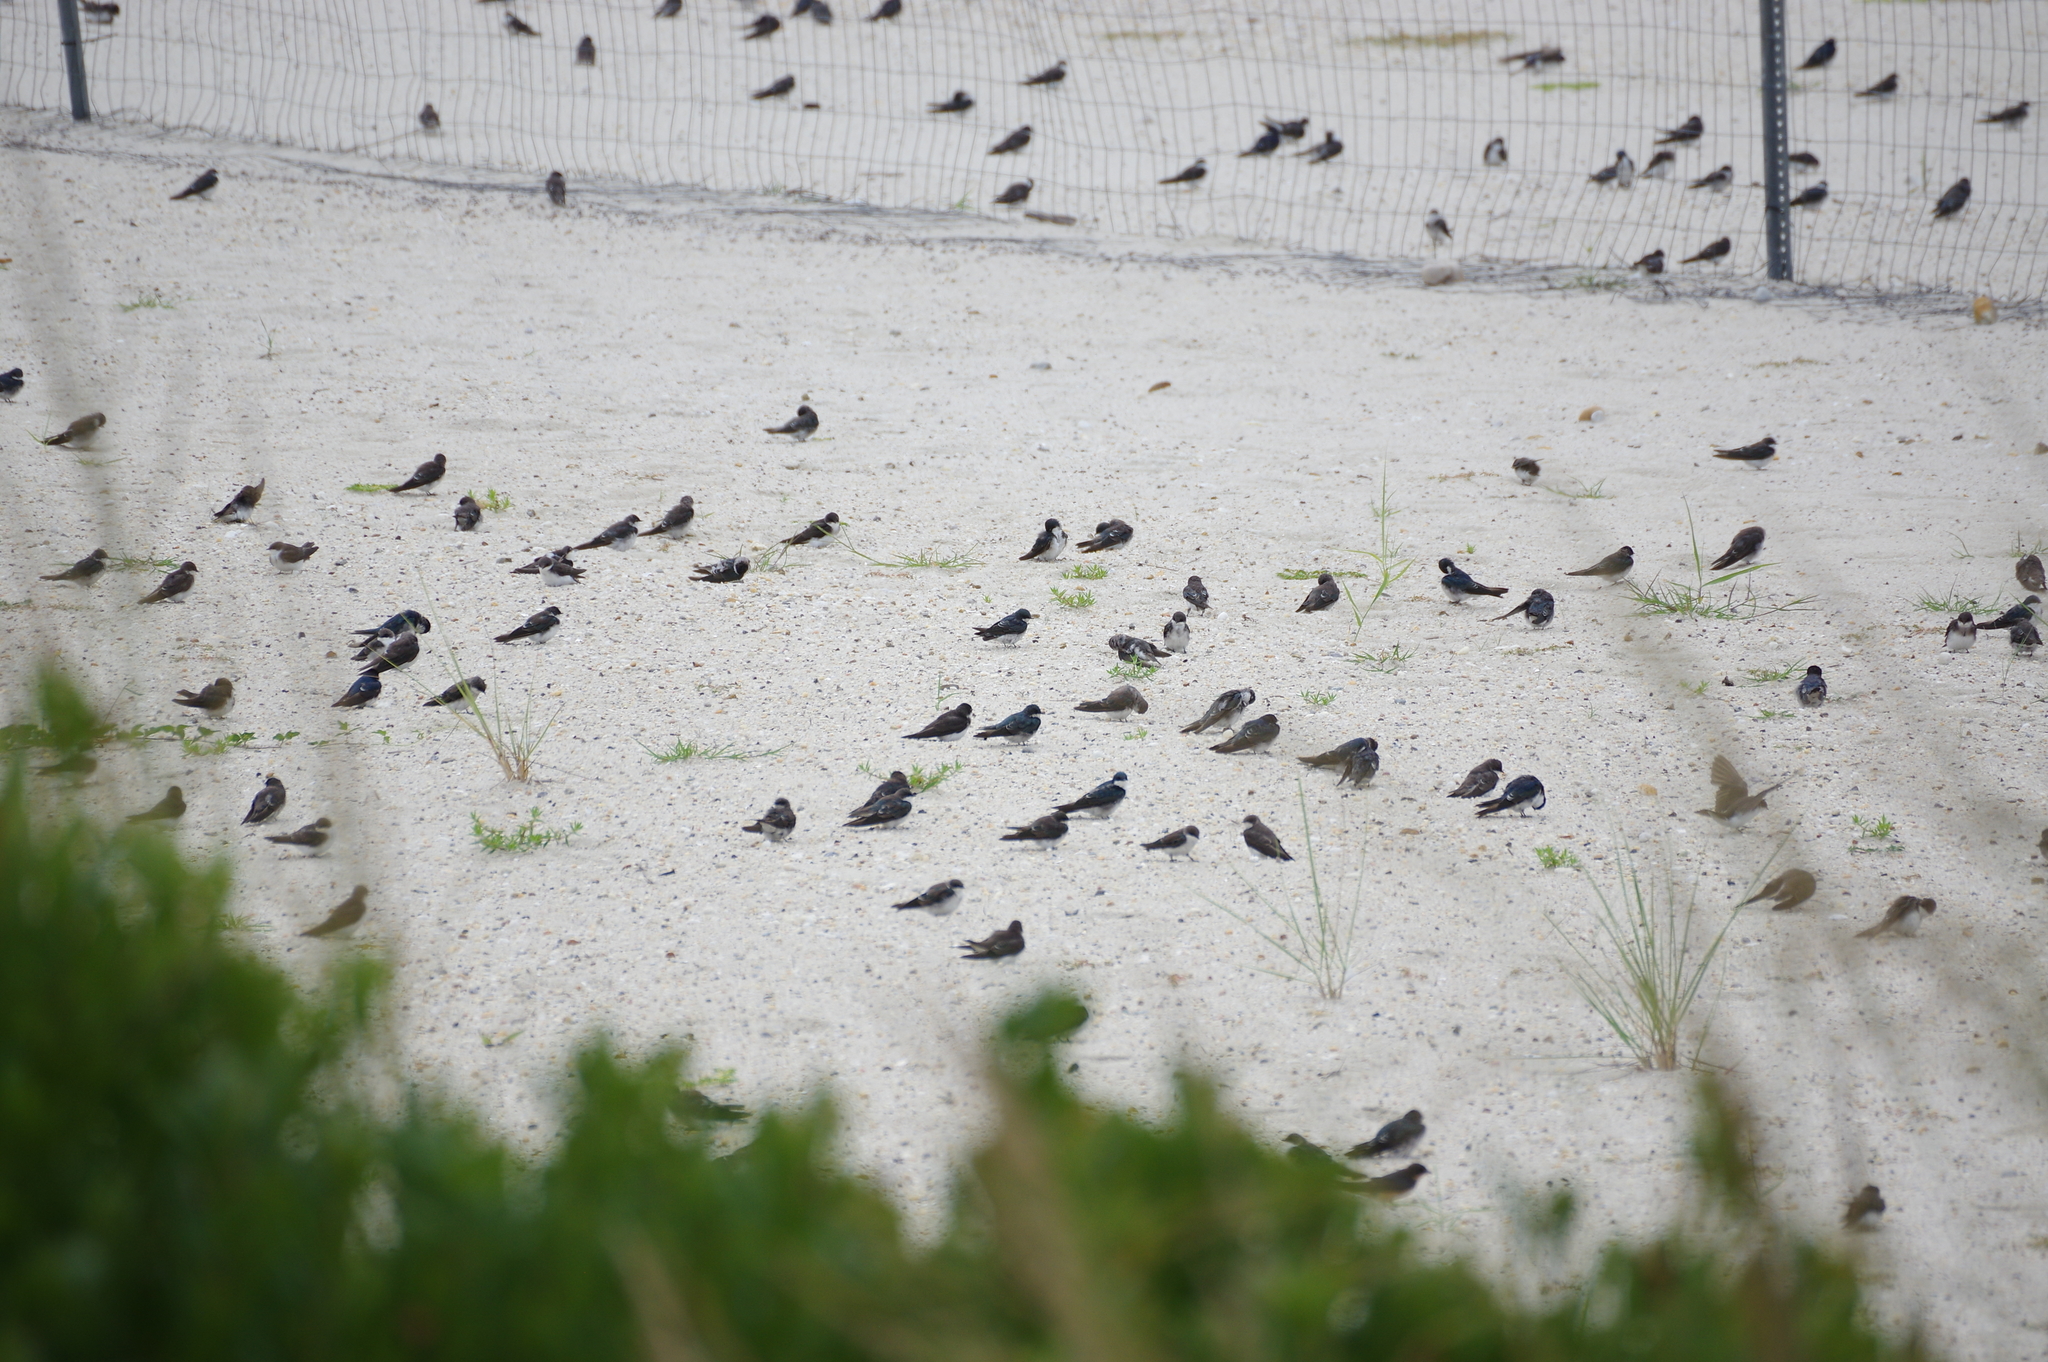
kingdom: Animalia
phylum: Chordata
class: Aves
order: Passeriformes
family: Hirundinidae
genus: Tachycineta
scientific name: Tachycineta bicolor
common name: Tree swallow
